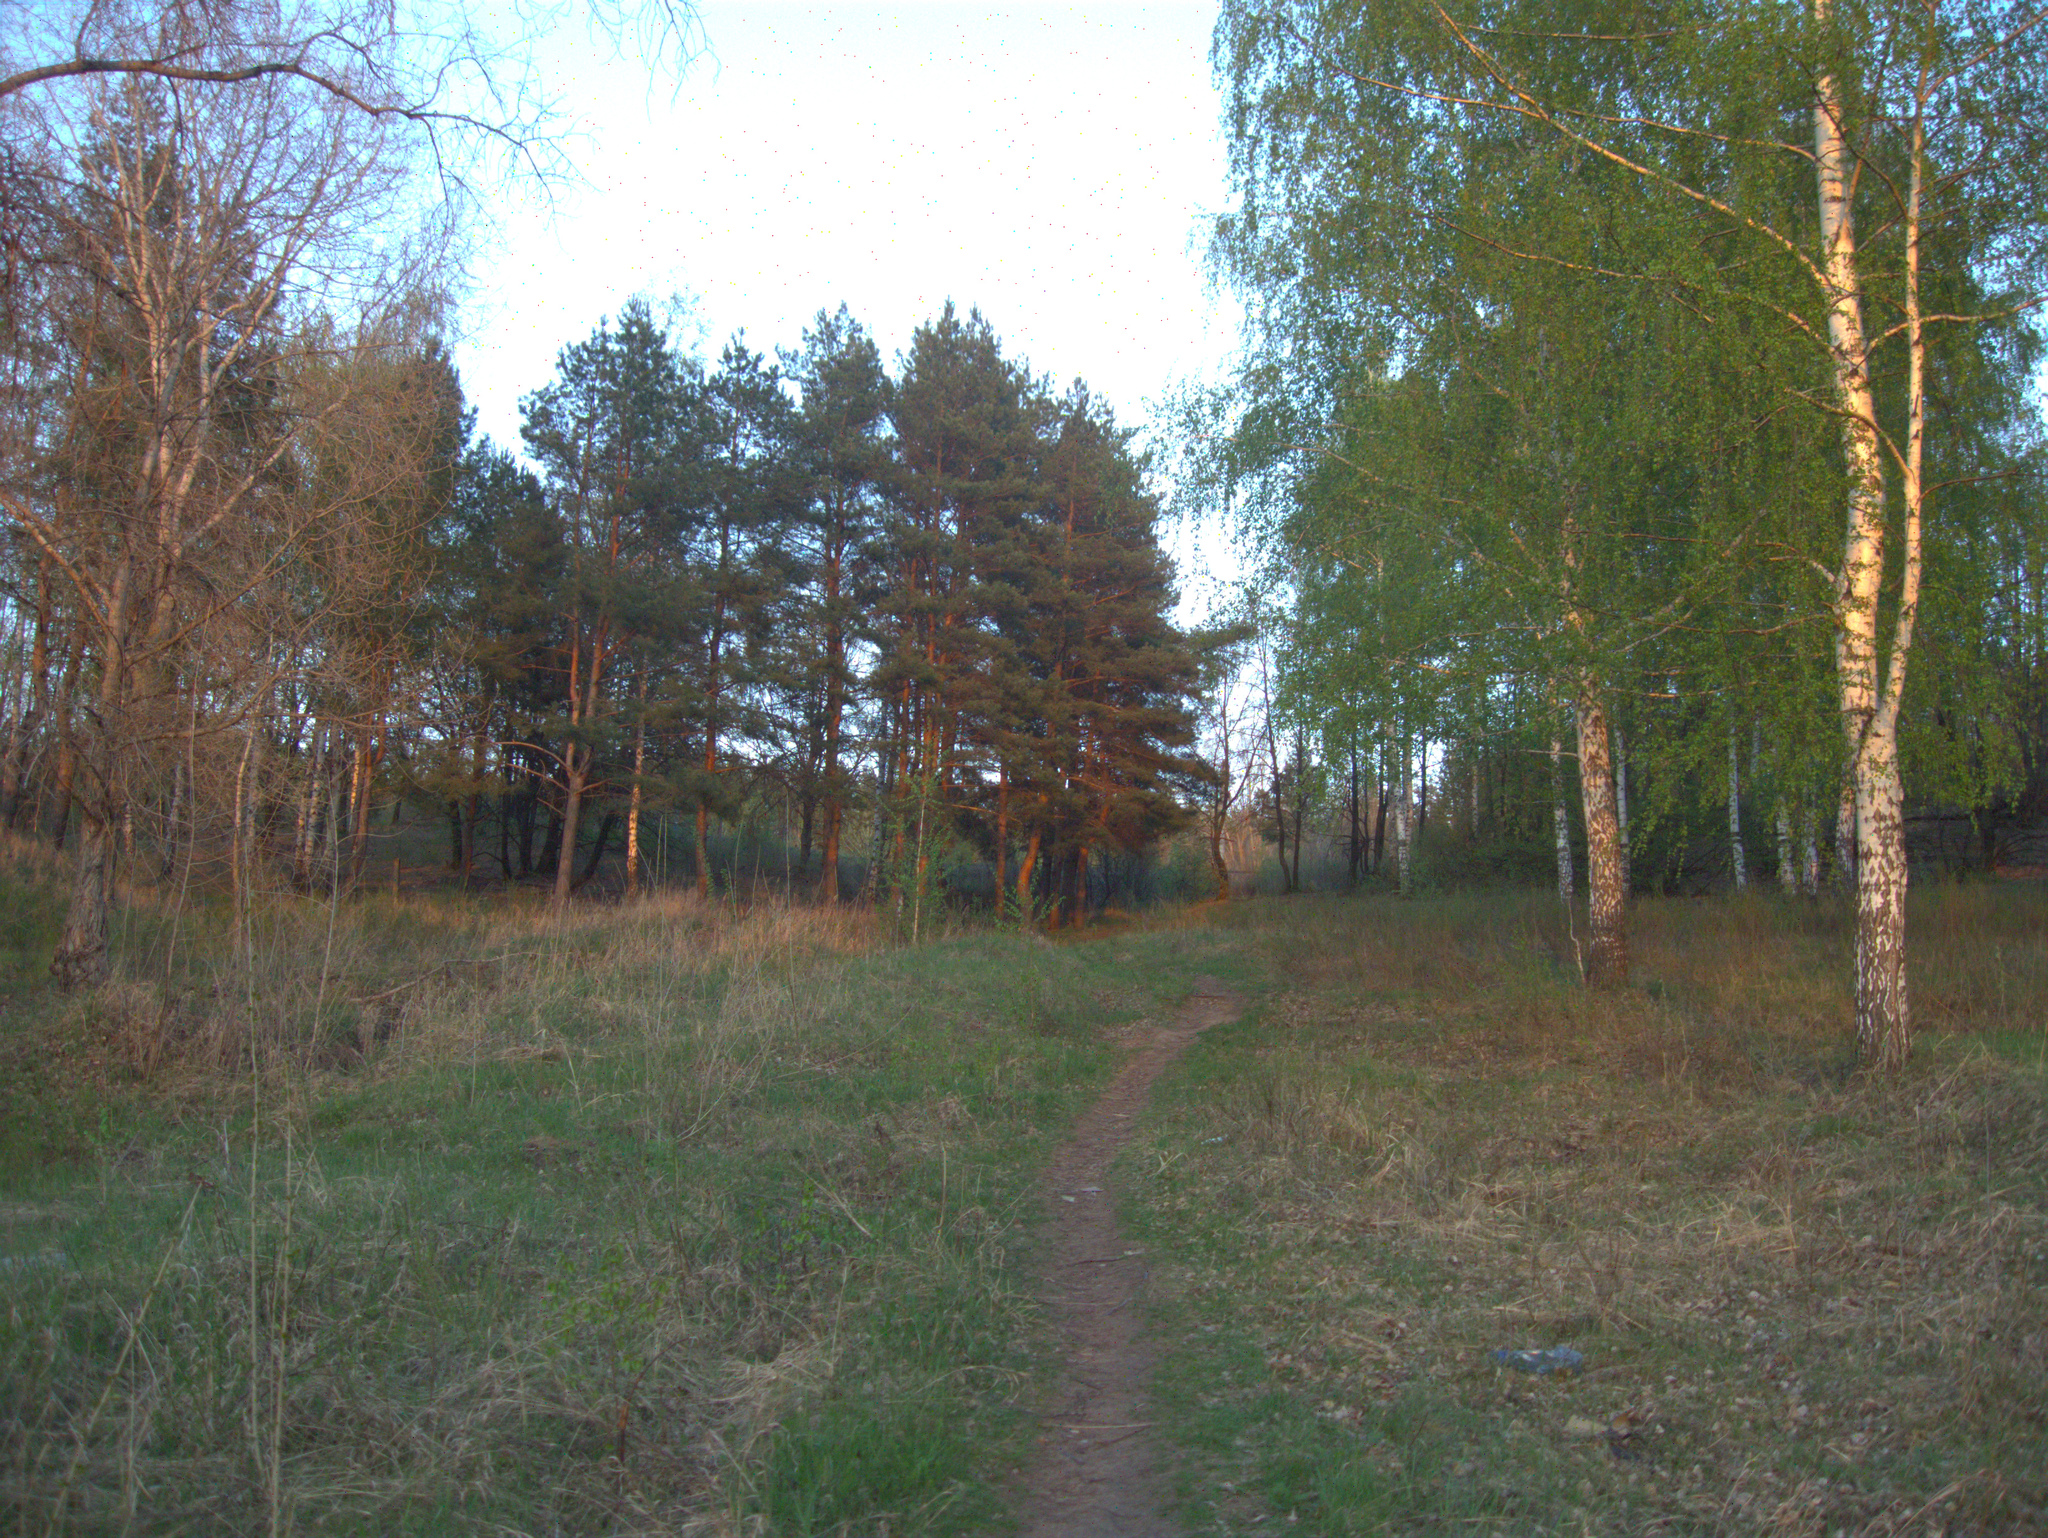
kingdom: Plantae
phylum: Tracheophyta
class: Pinopsida
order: Pinales
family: Pinaceae
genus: Pinus
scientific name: Pinus sylvestris
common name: Scots pine
